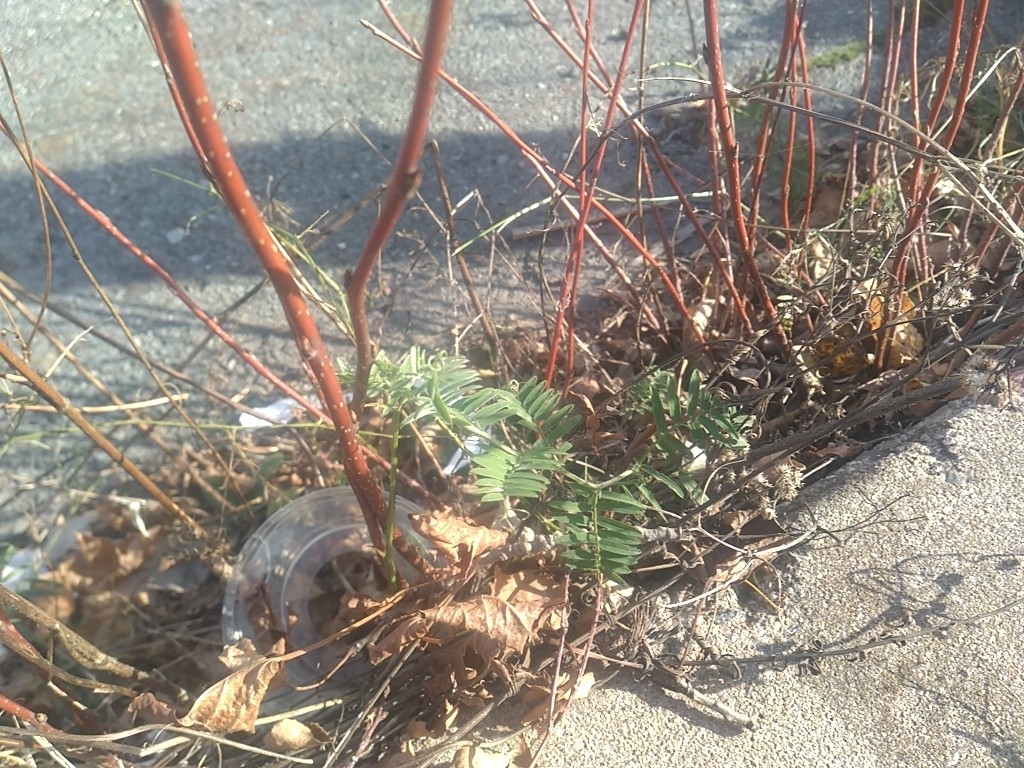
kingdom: Plantae
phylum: Tracheophyta
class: Magnoliopsida
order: Fabales
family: Fabaceae
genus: Vicia
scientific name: Vicia cracca
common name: Bird vetch
